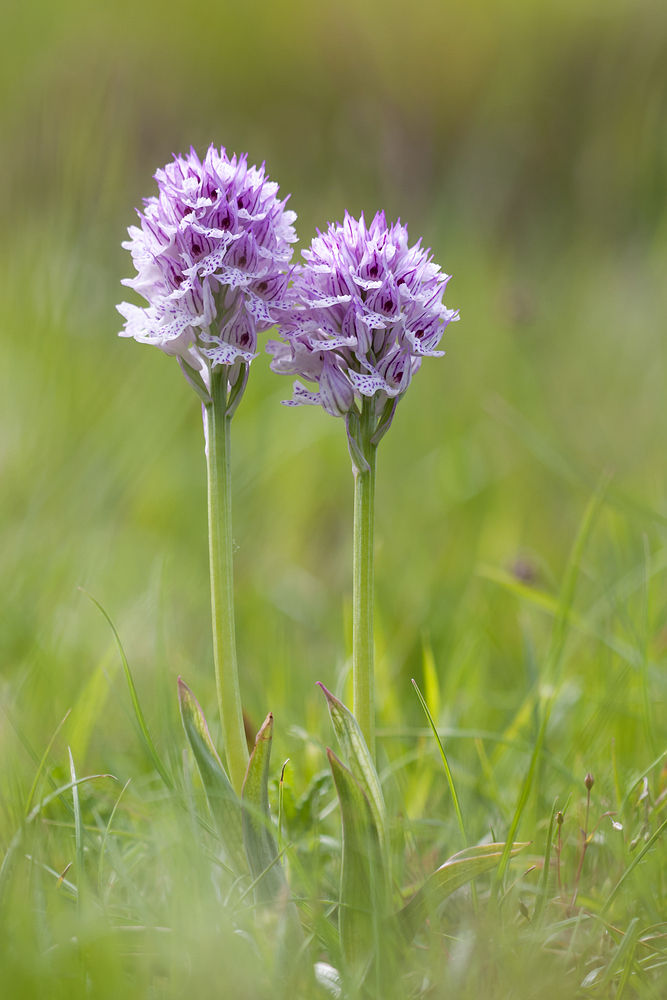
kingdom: Plantae
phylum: Tracheophyta
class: Liliopsida
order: Asparagales
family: Orchidaceae
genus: Neotinea
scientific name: Neotinea tridentata
